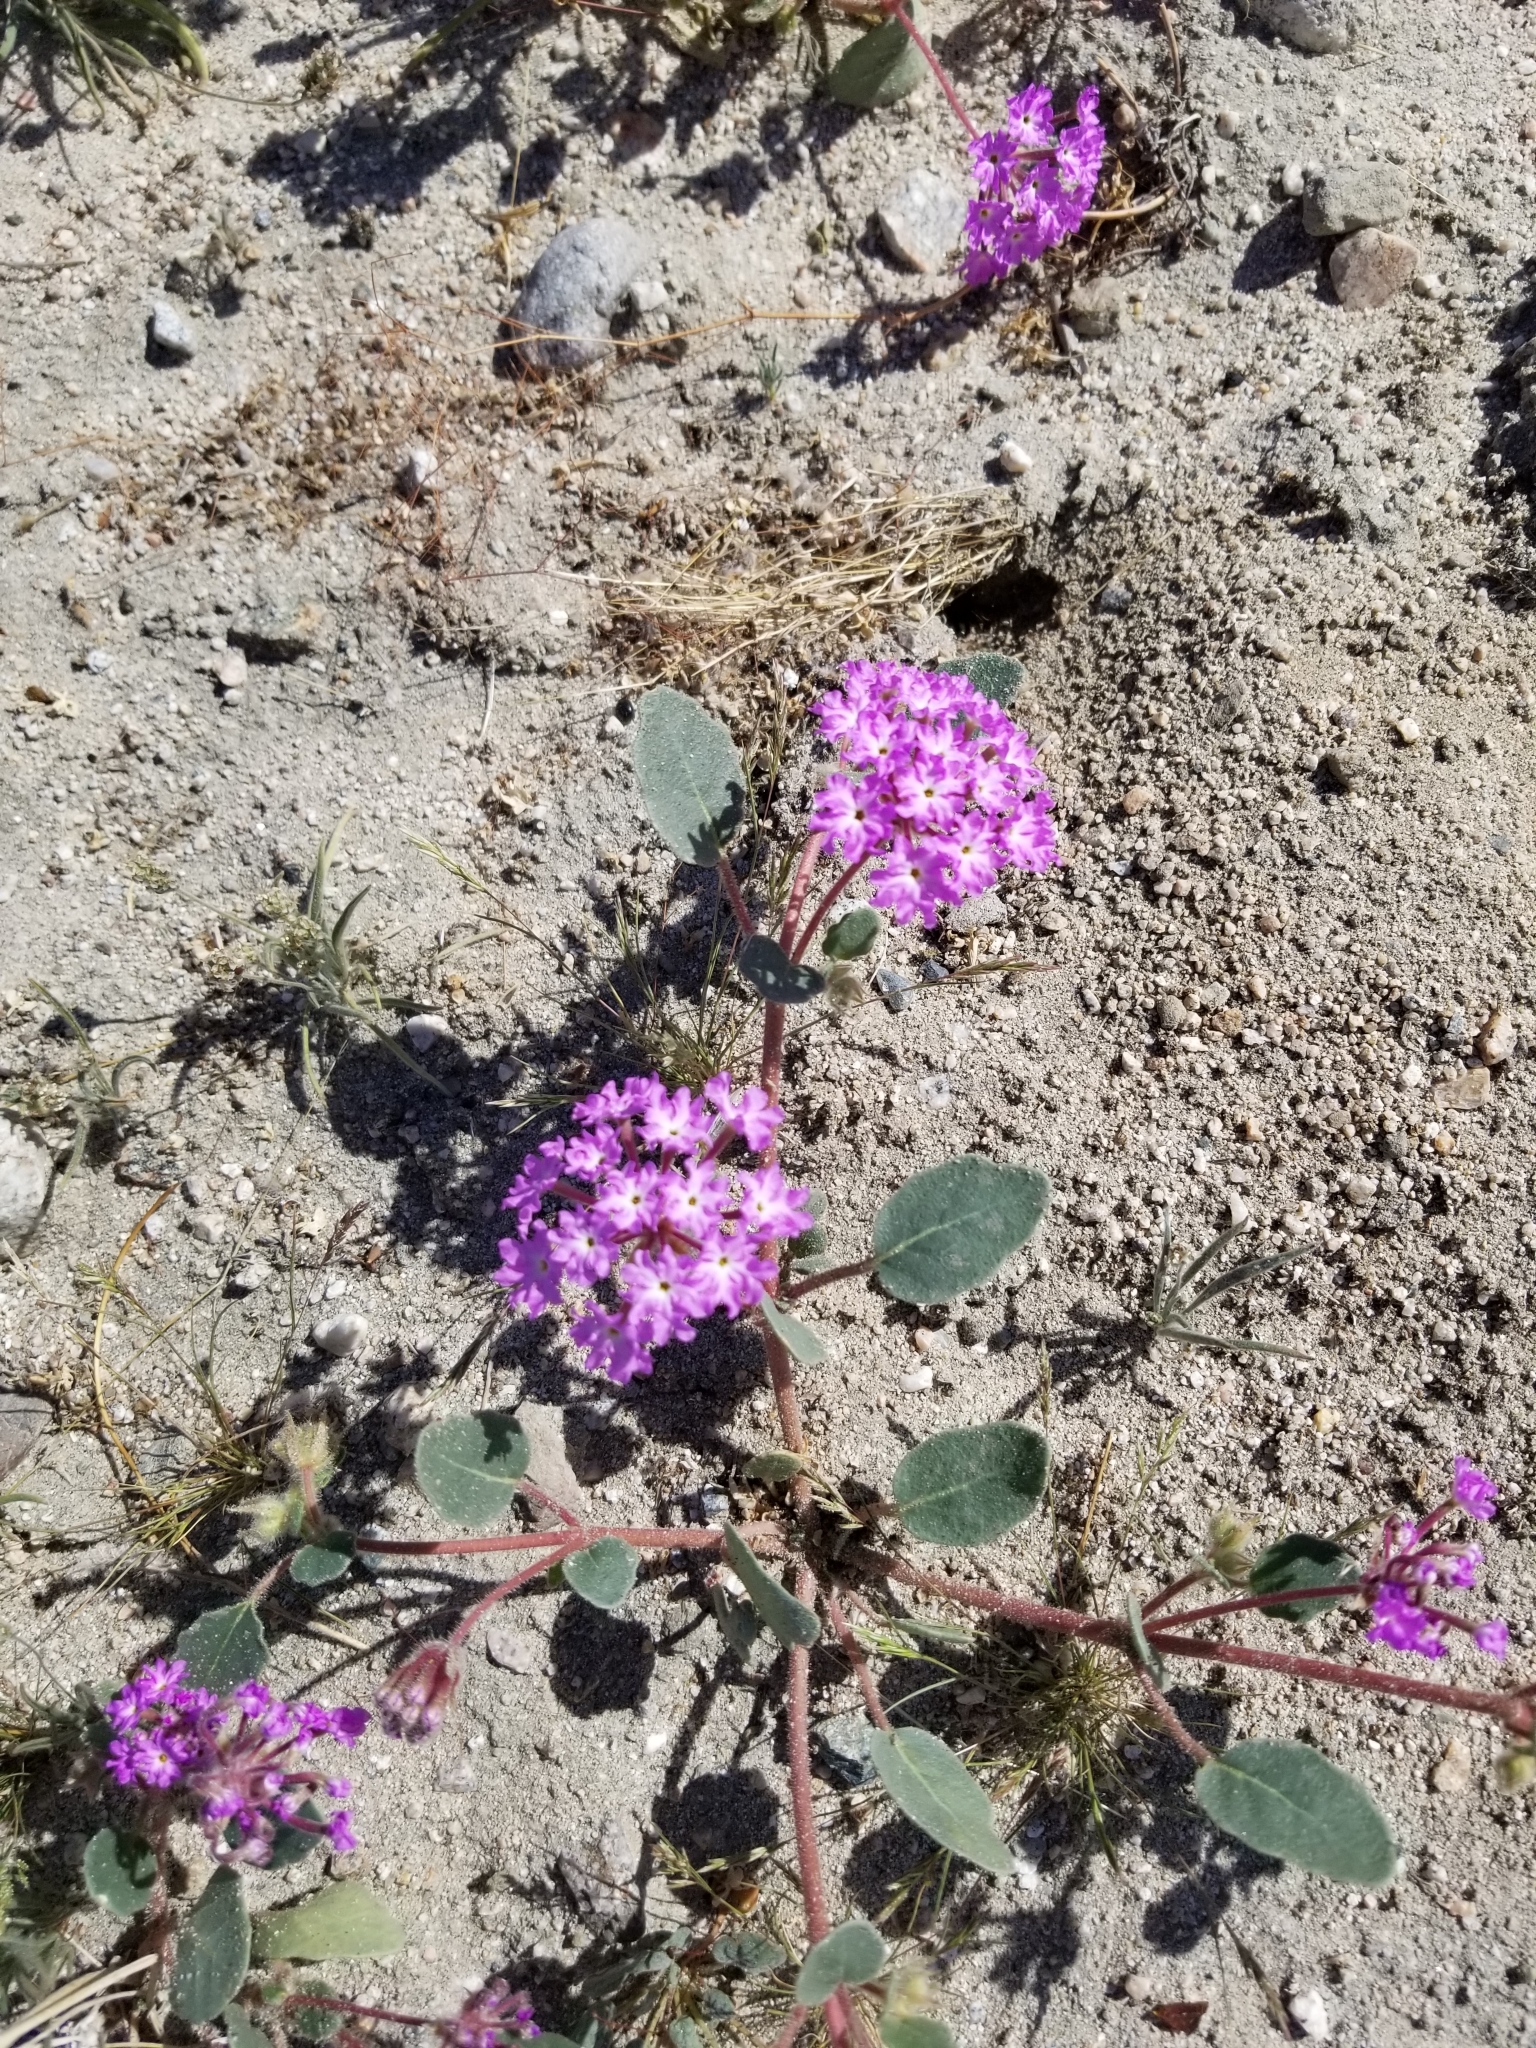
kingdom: Plantae
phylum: Tracheophyta
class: Magnoliopsida
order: Caryophyllales
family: Nyctaginaceae
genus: Abronia
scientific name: Abronia villosa
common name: Desert sand-verbena
